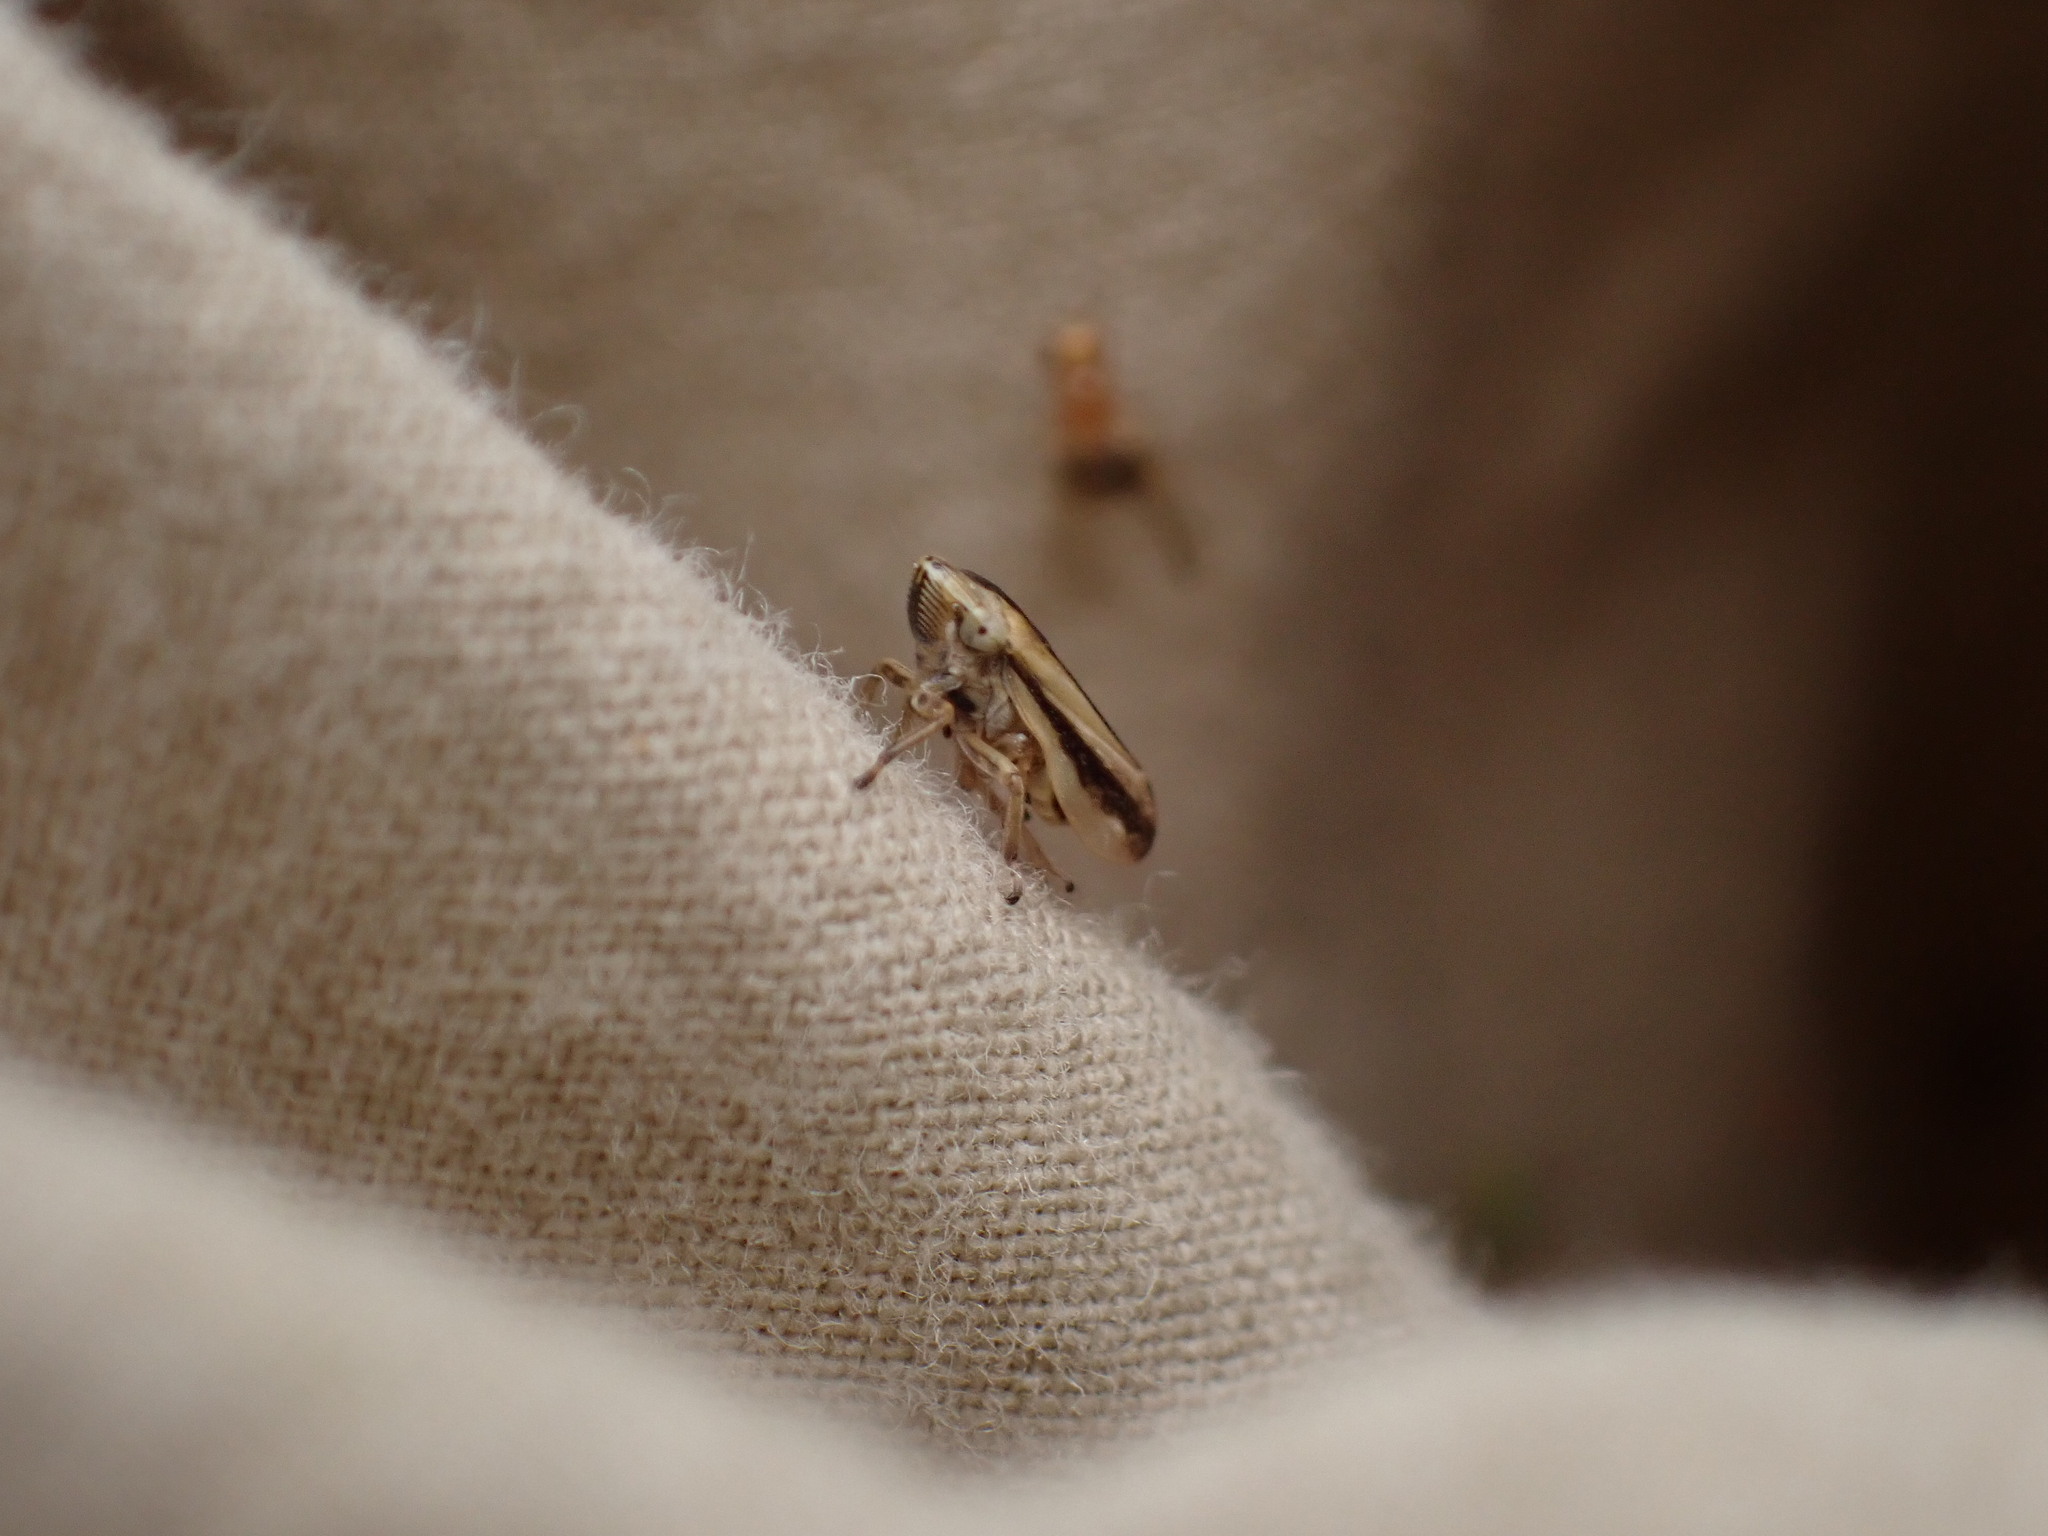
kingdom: Animalia
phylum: Arthropoda
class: Insecta
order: Hemiptera
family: Aphrophoridae
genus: Philaenus
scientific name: Philaenus spumarius
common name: Meadow spittlebug
